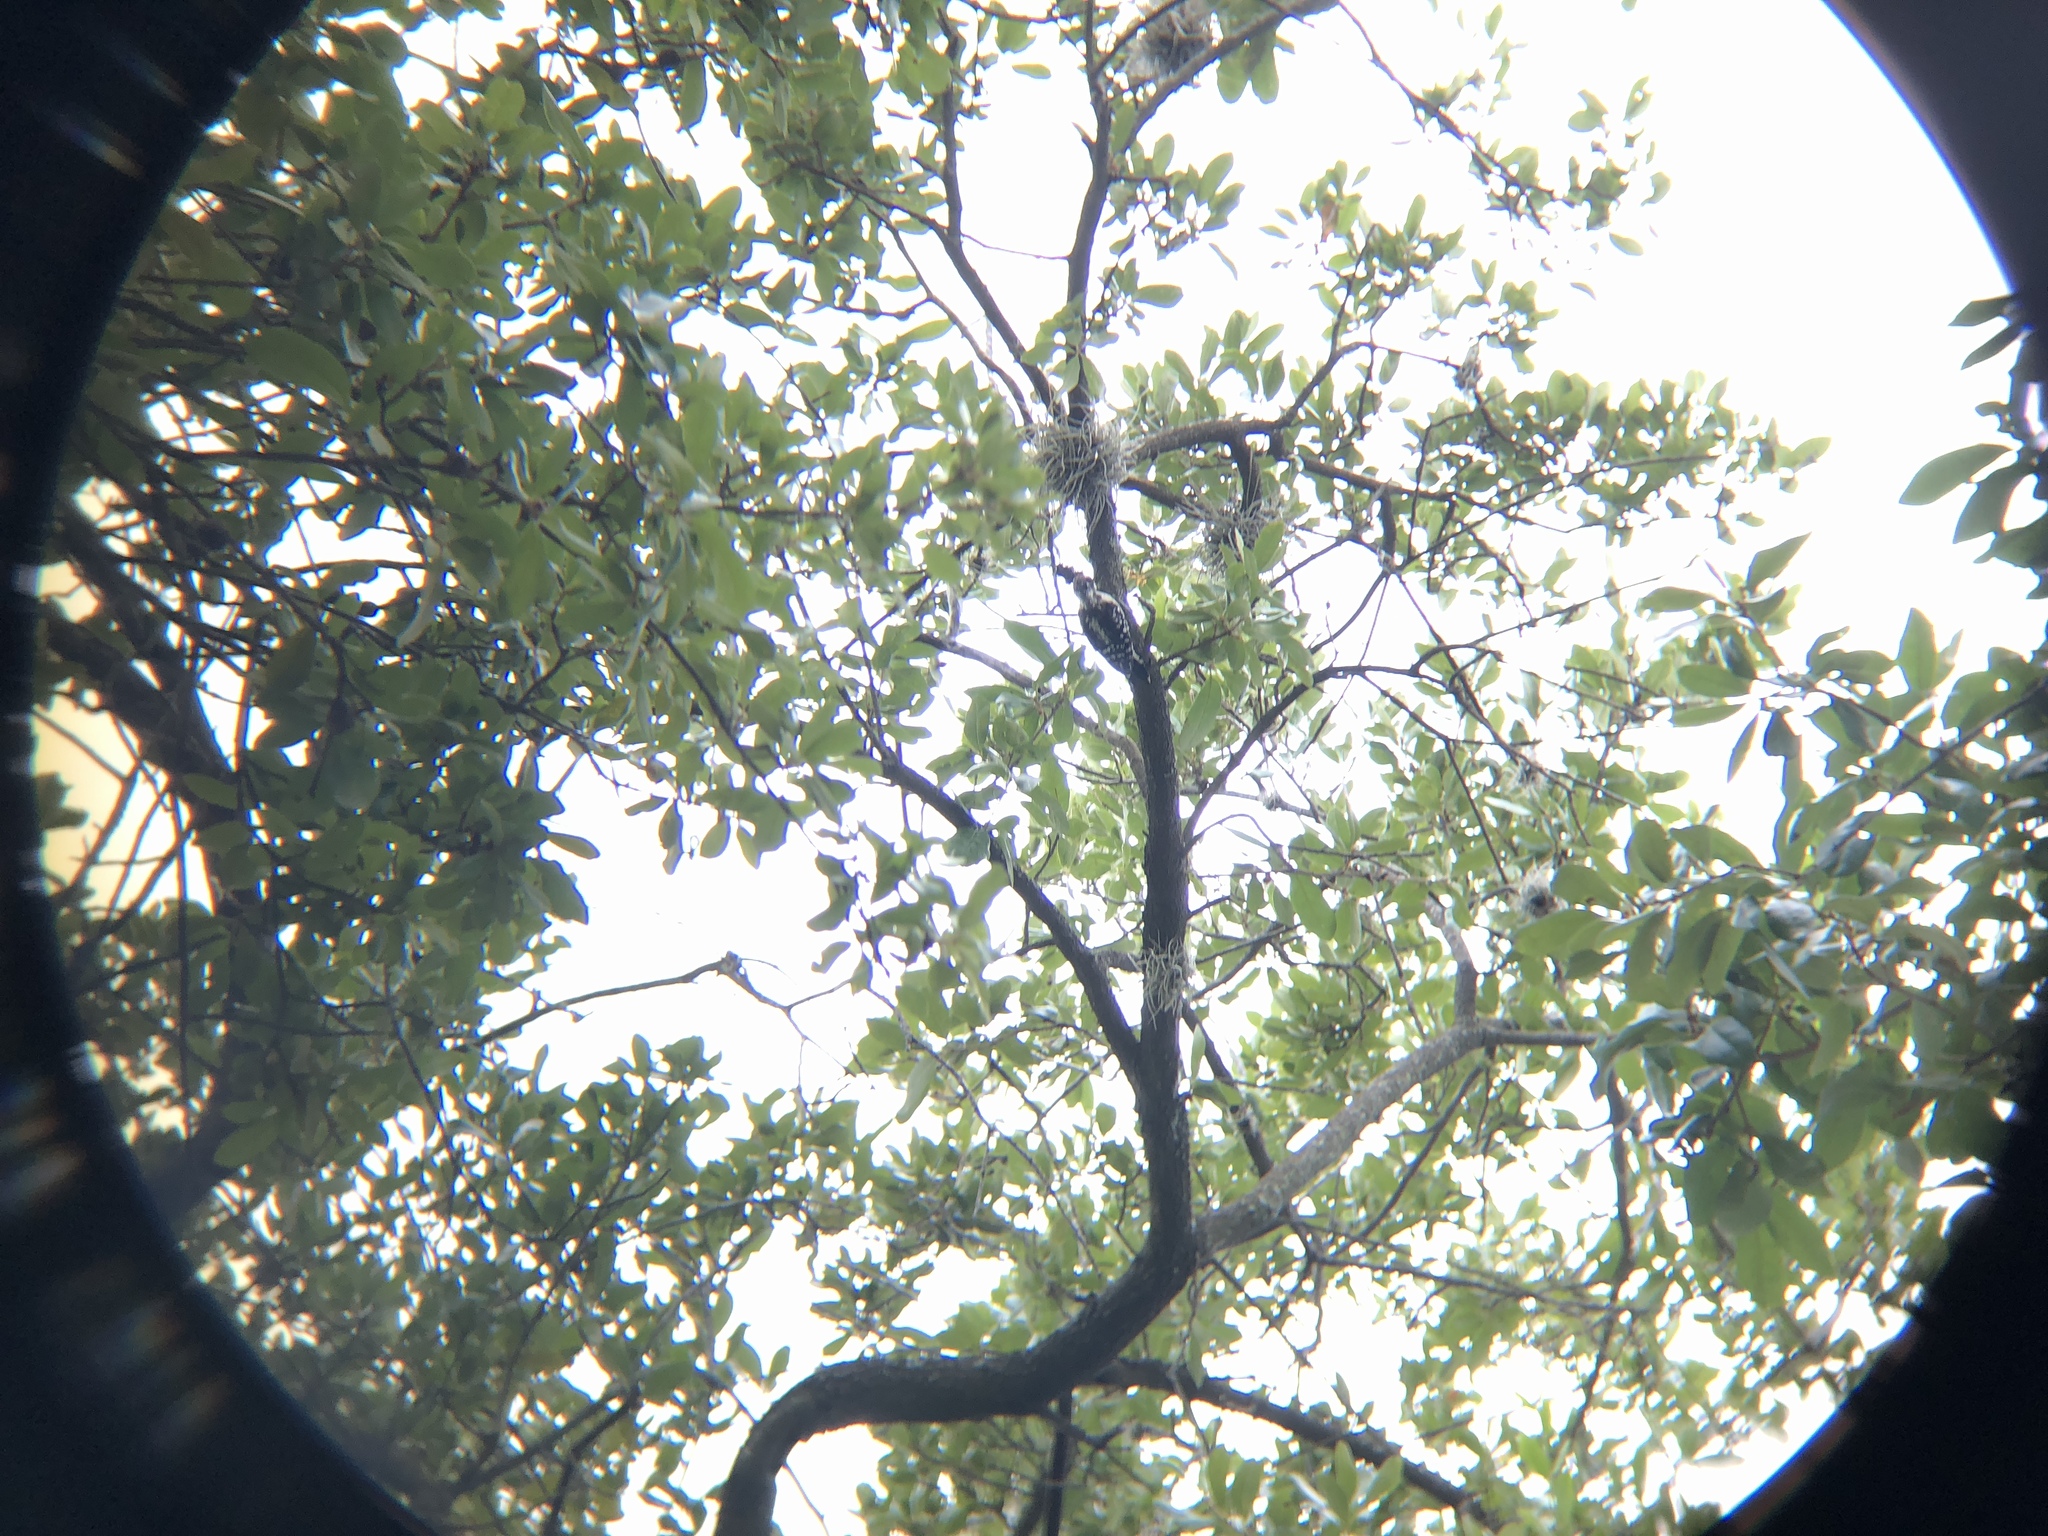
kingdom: Animalia
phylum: Chordata
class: Aves
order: Piciformes
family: Picidae
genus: Dryobates
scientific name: Dryobates pubescens
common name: Downy woodpecker
